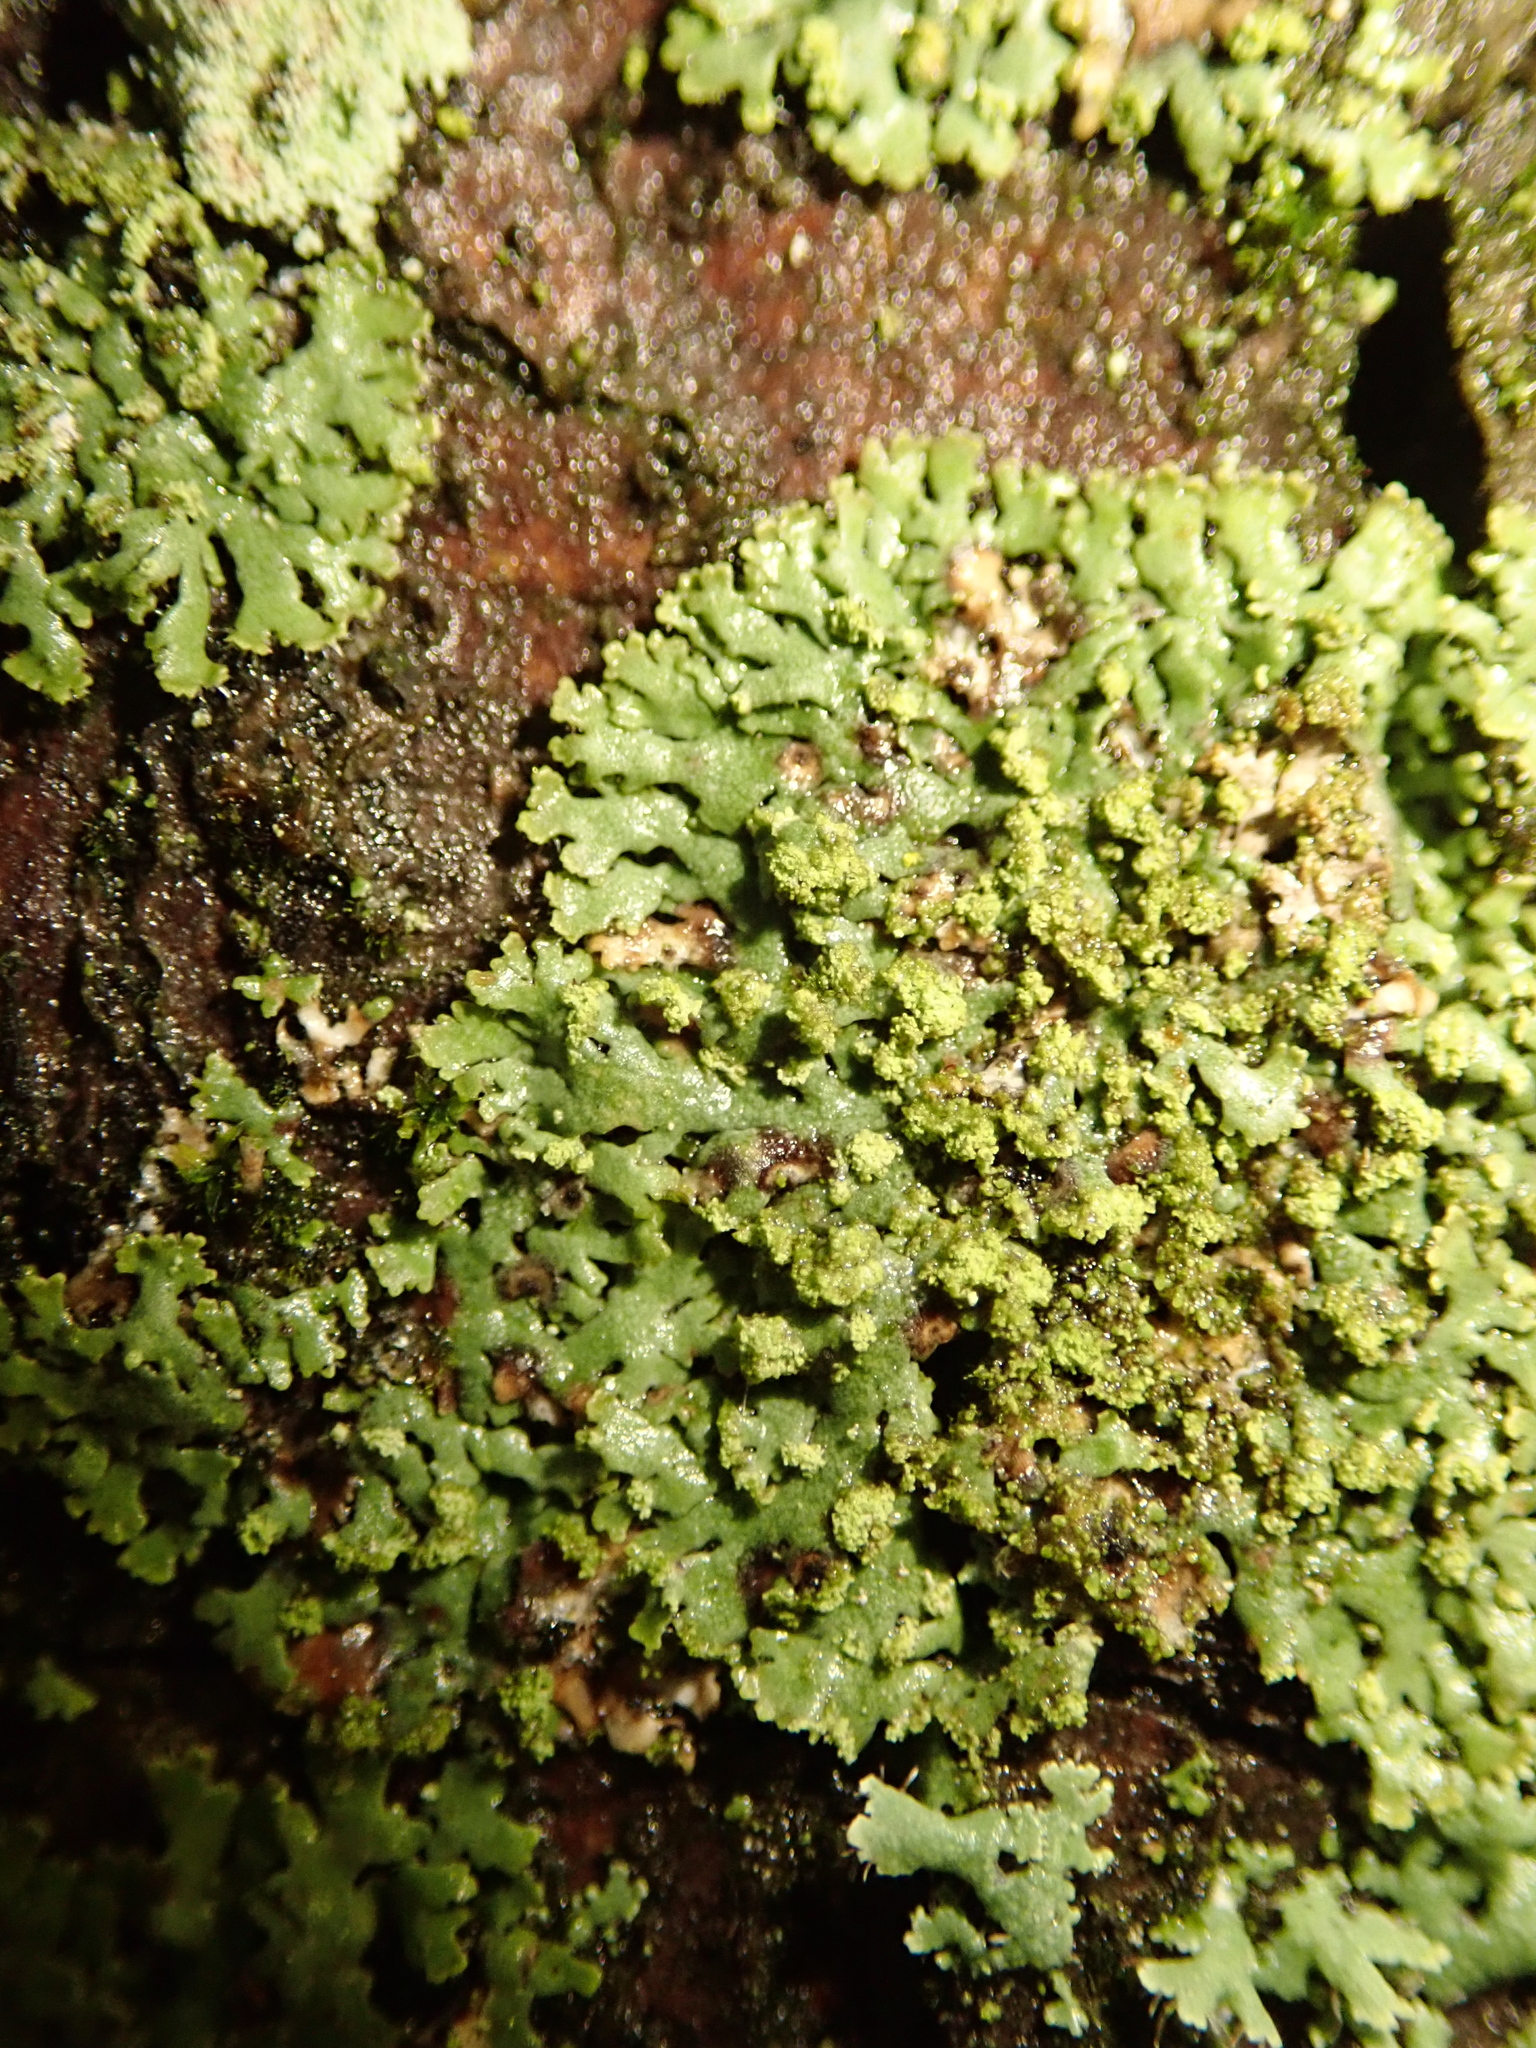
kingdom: Fungi
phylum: Ascomycota
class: Lecanoromycetes
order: Caliciales
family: Physciaceae
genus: Phaeophyscia
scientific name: Phaeophyscia orbicularis
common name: Mealy shadow lichen
